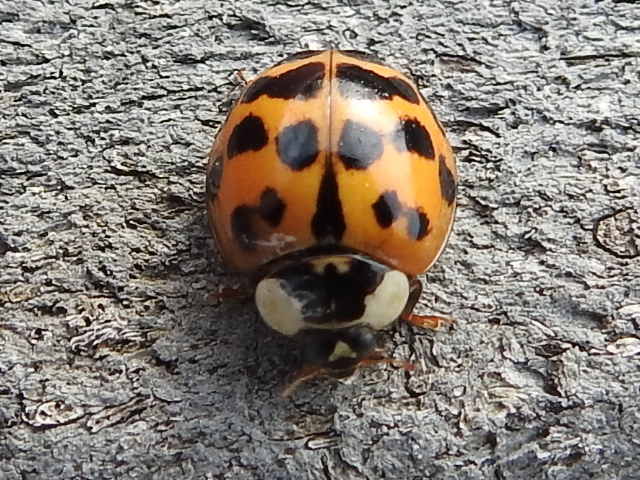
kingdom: Animalia
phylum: Arthropoda
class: Insecta
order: Coleoptera
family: Coccinellidae
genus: Harmonia
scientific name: Harmonia axyridis
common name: Harlequin ladybird
